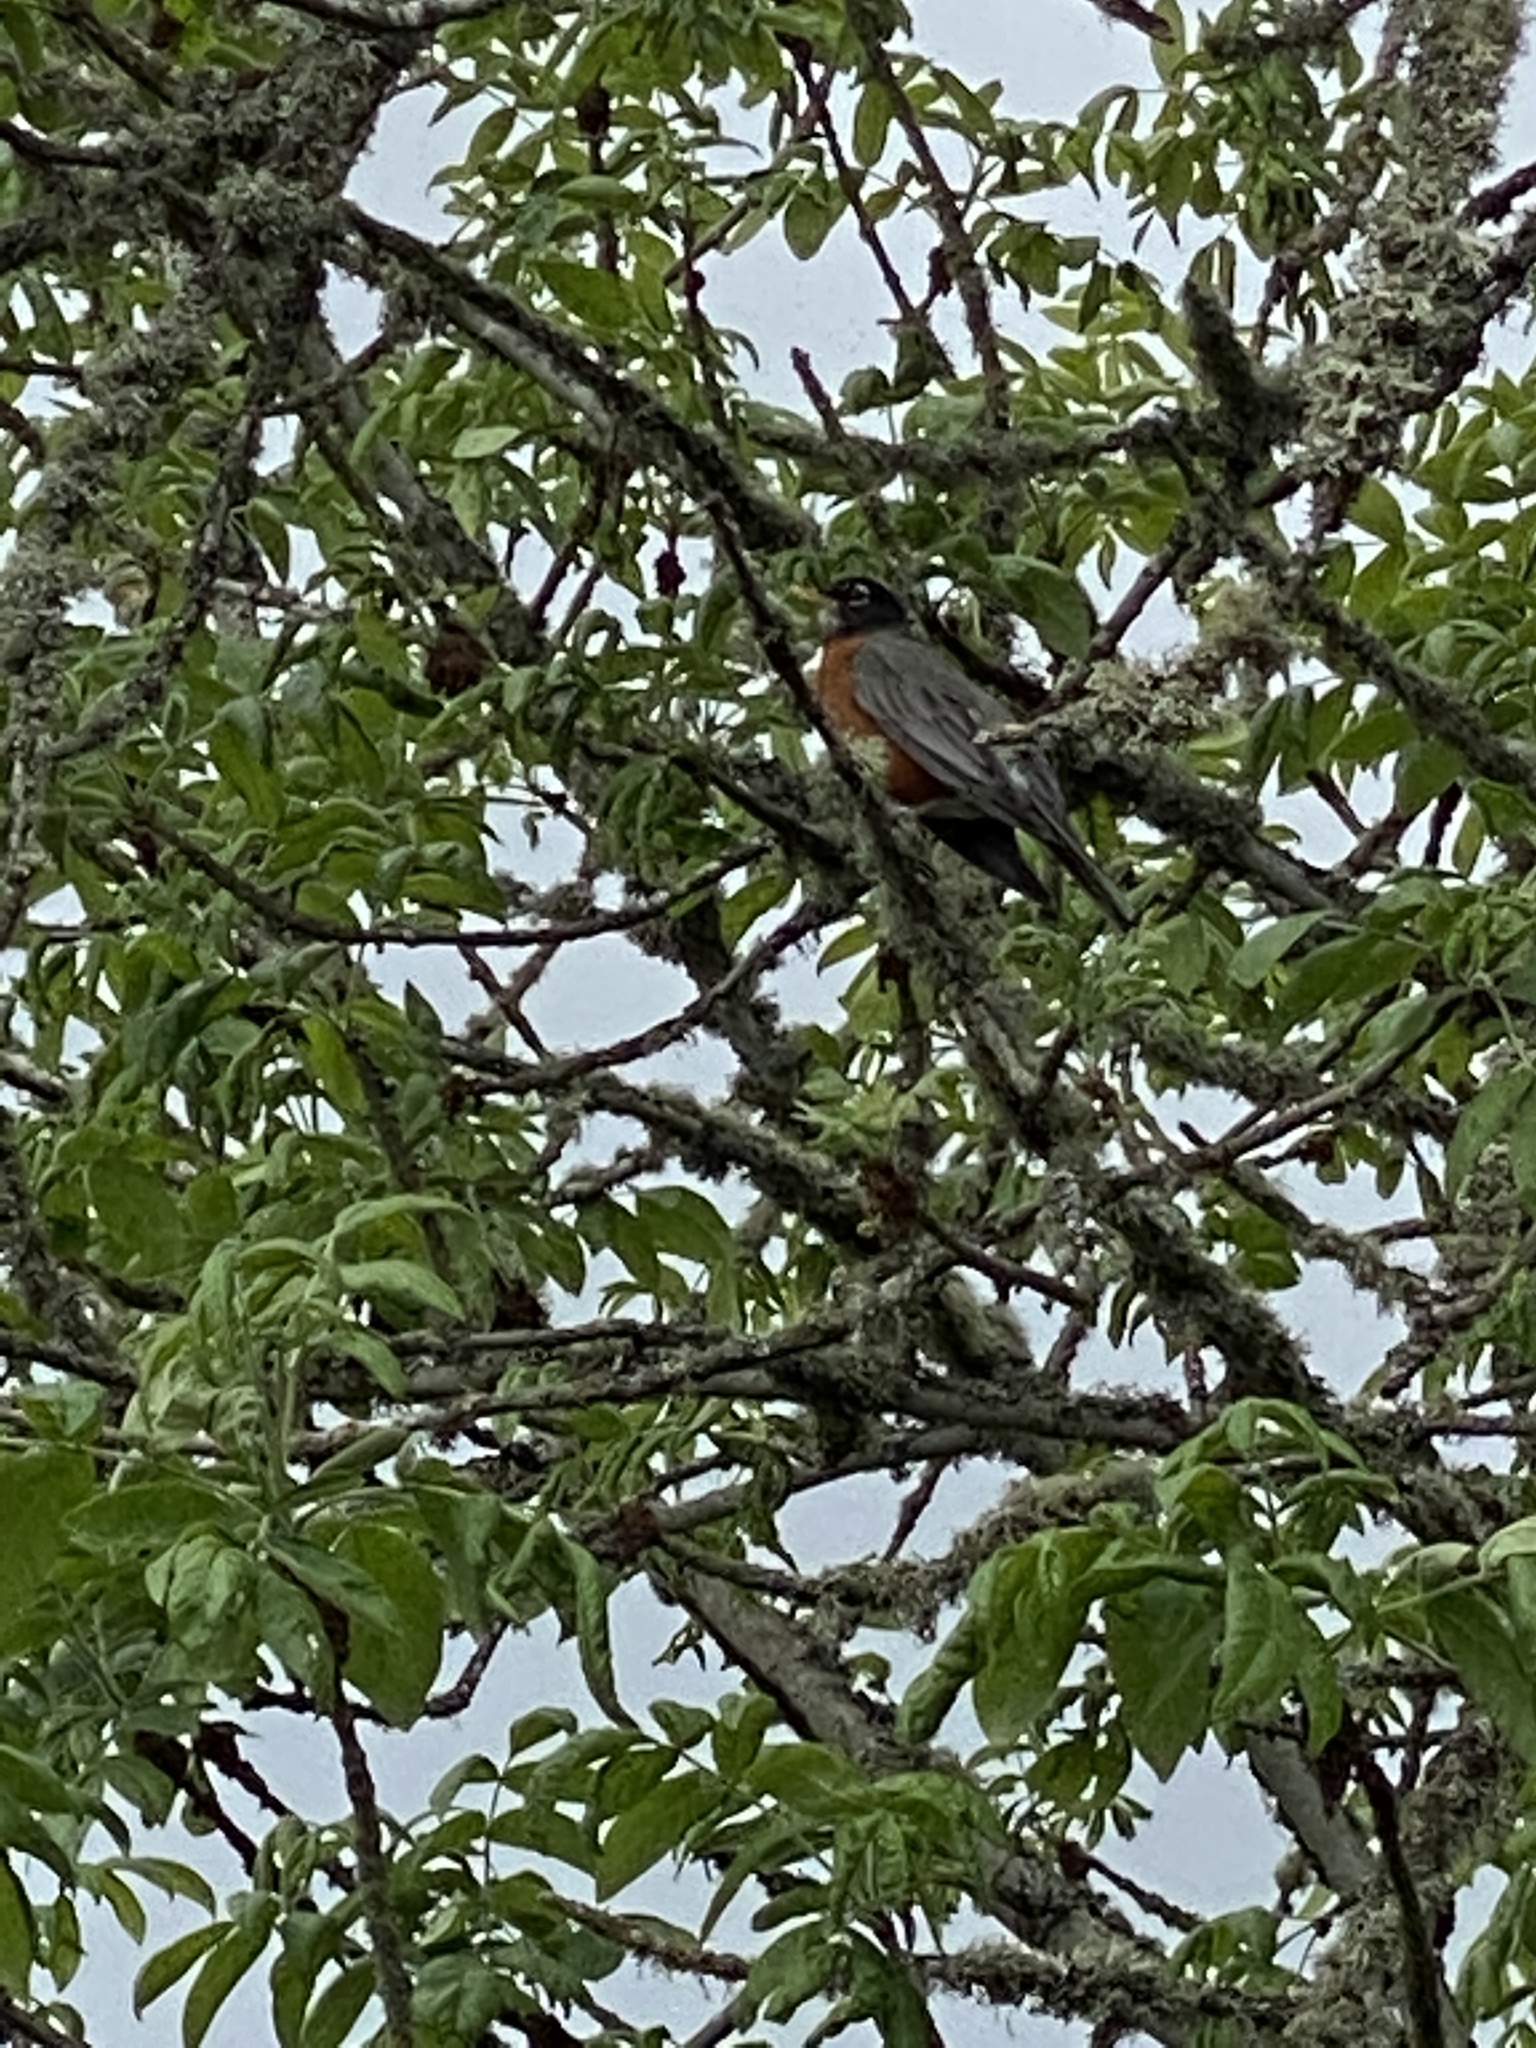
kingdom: Animalia
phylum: Chordata
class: Aves
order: Passeriformes
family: Turdidae
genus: Turdus
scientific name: Turdus migratorius
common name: American robin
